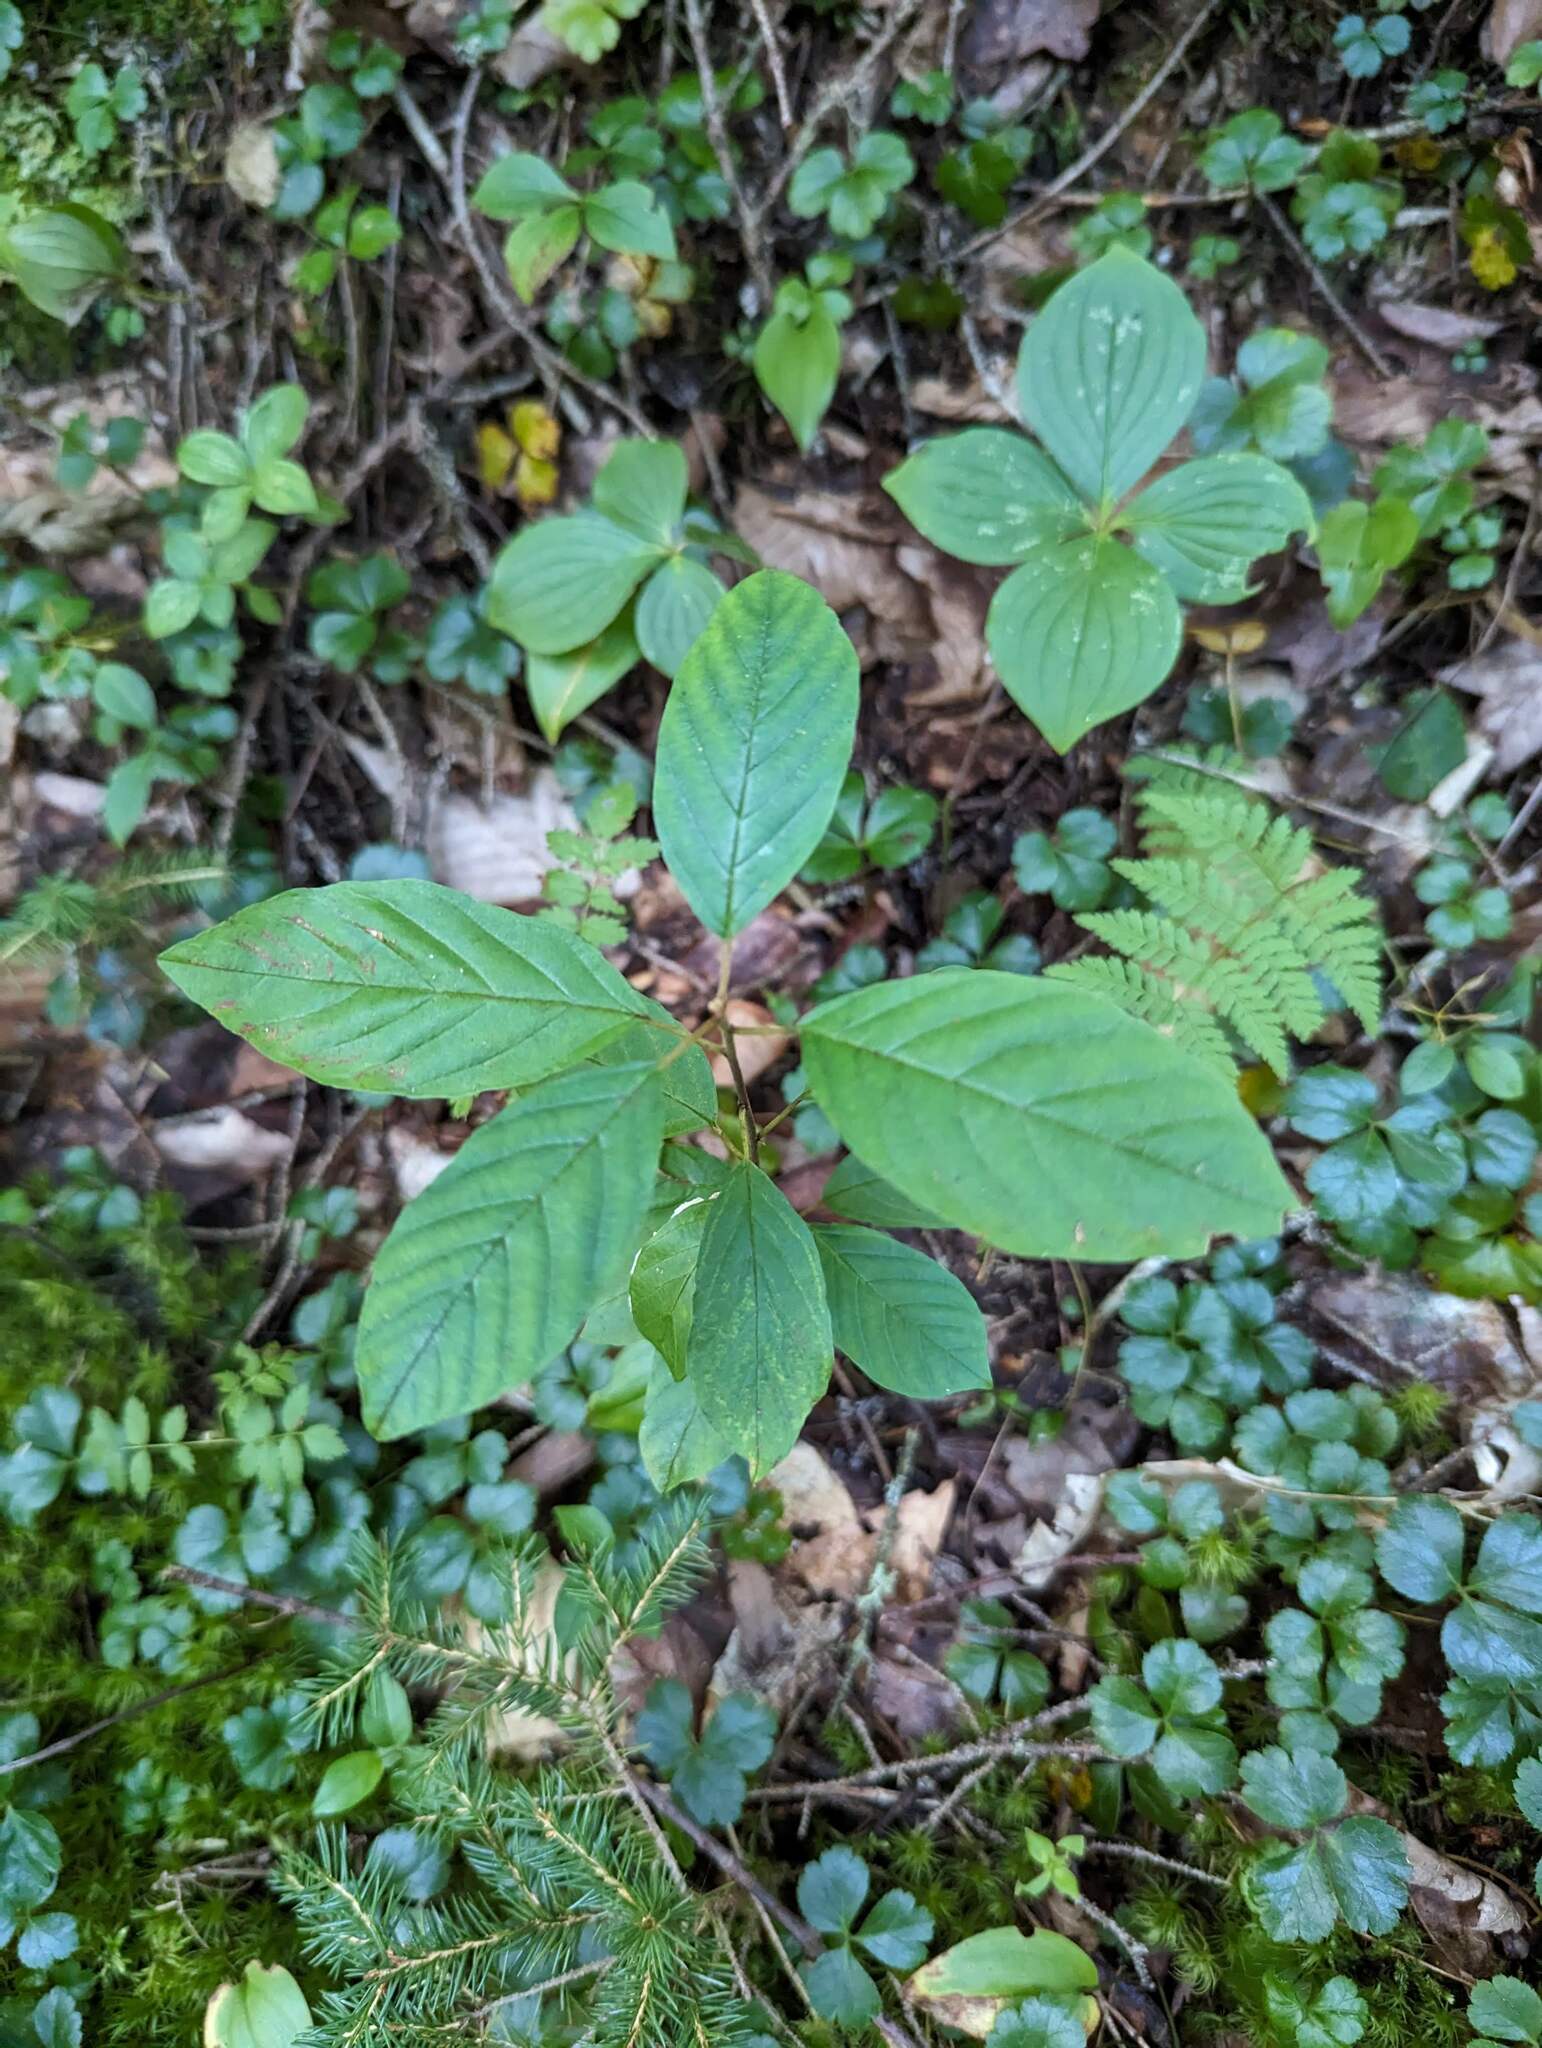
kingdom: Plantae
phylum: Tracheophyta
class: Magnoliopsida
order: Rosales
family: Rhamnaceae
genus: Frangula
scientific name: Frangula alnus
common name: Alder buckthorn
